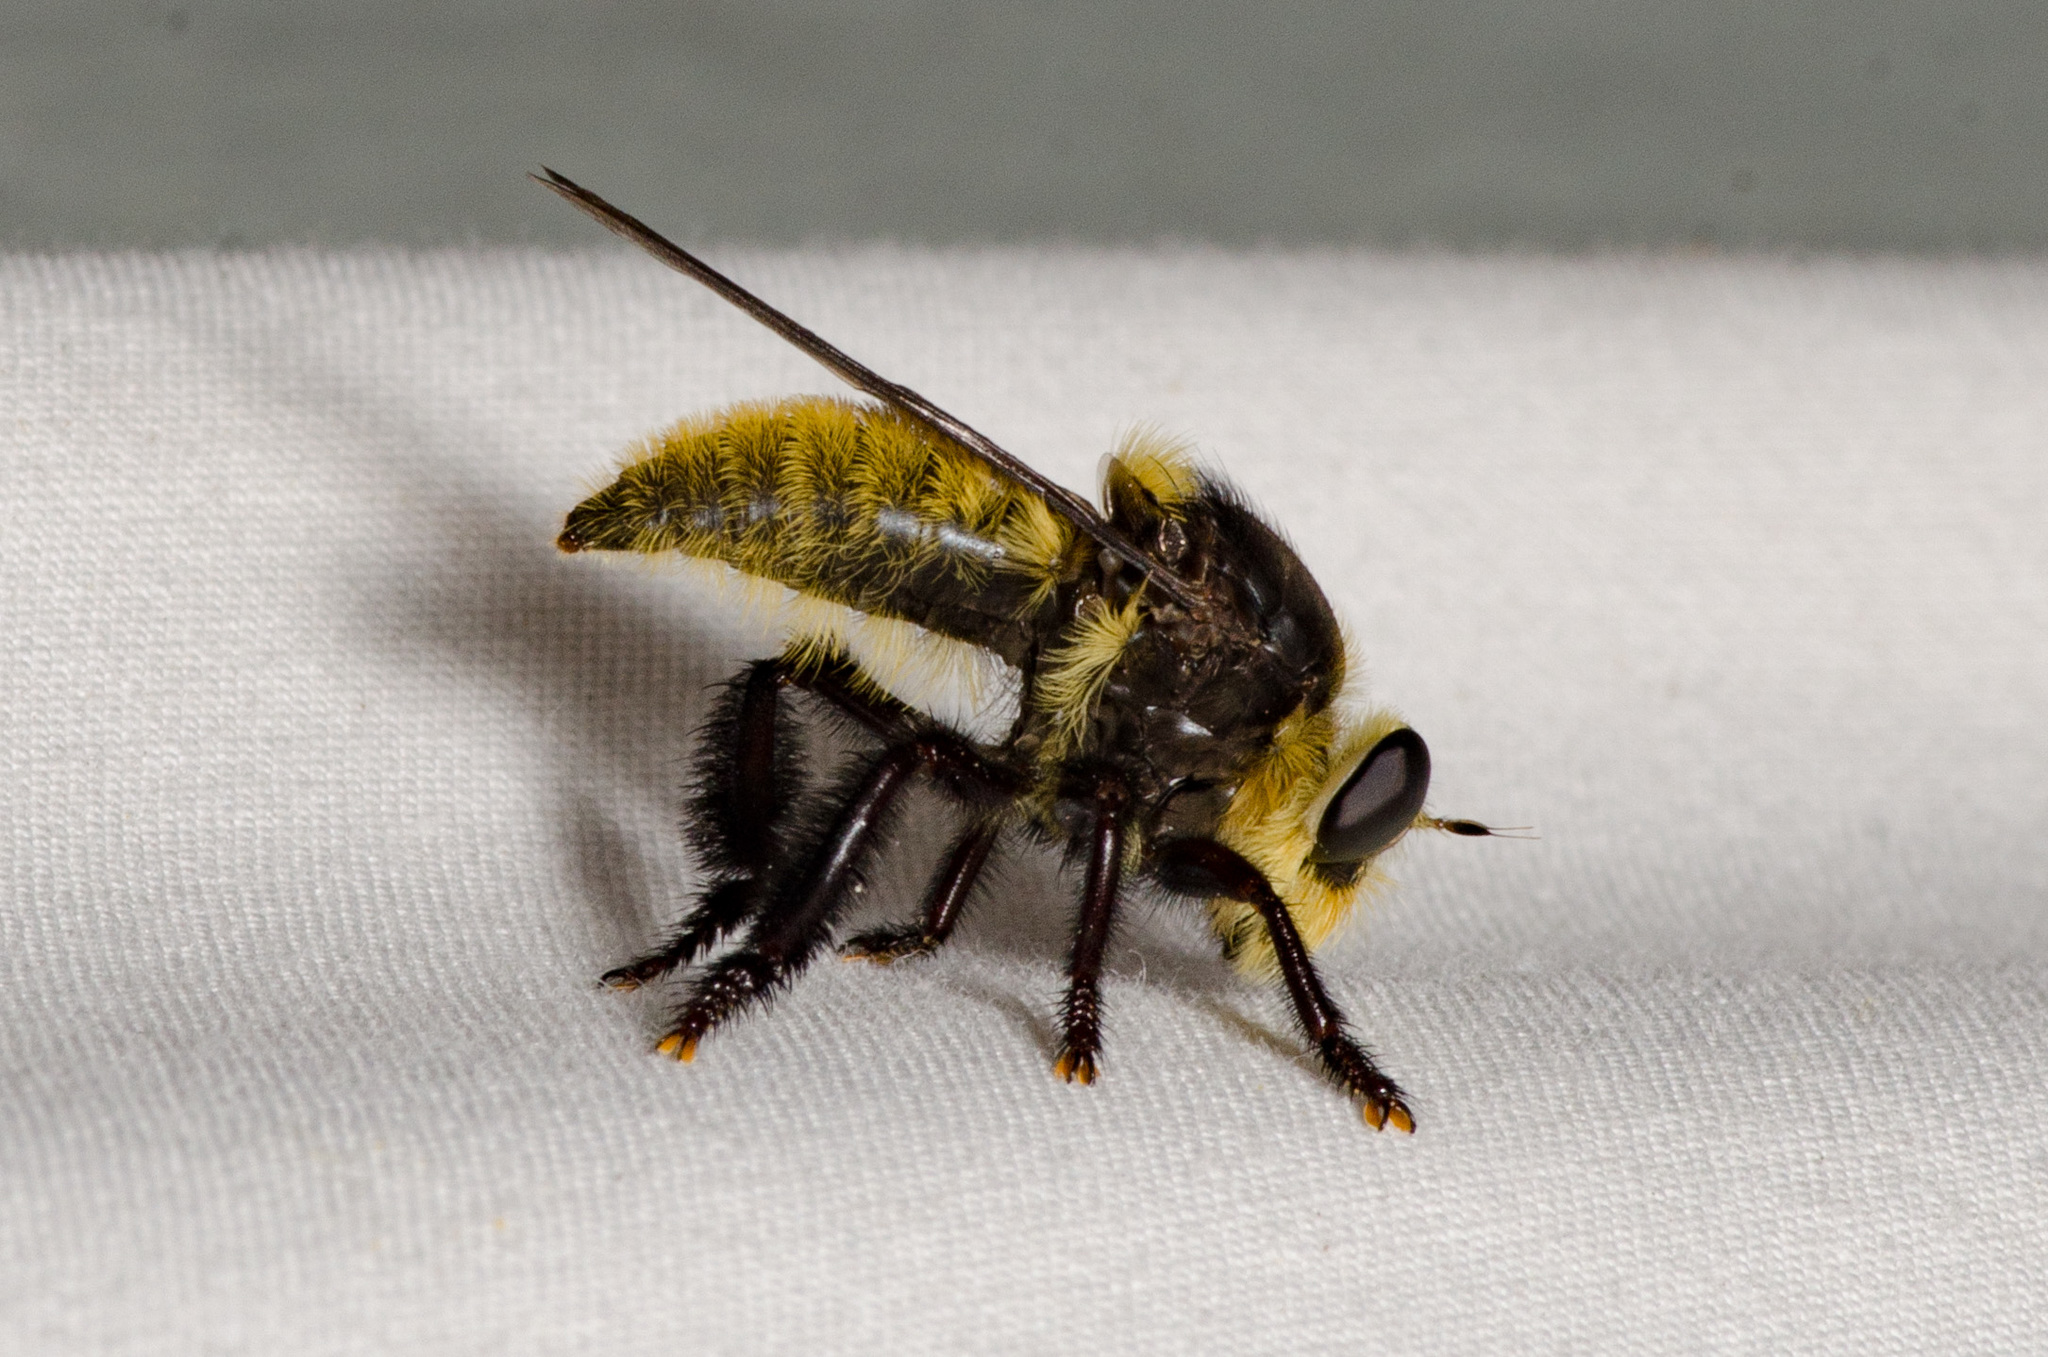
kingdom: Animalia
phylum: Arthropoda
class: Insecta
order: Diptera
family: Asilidae
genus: Mallophora
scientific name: Mallophora fautrix
